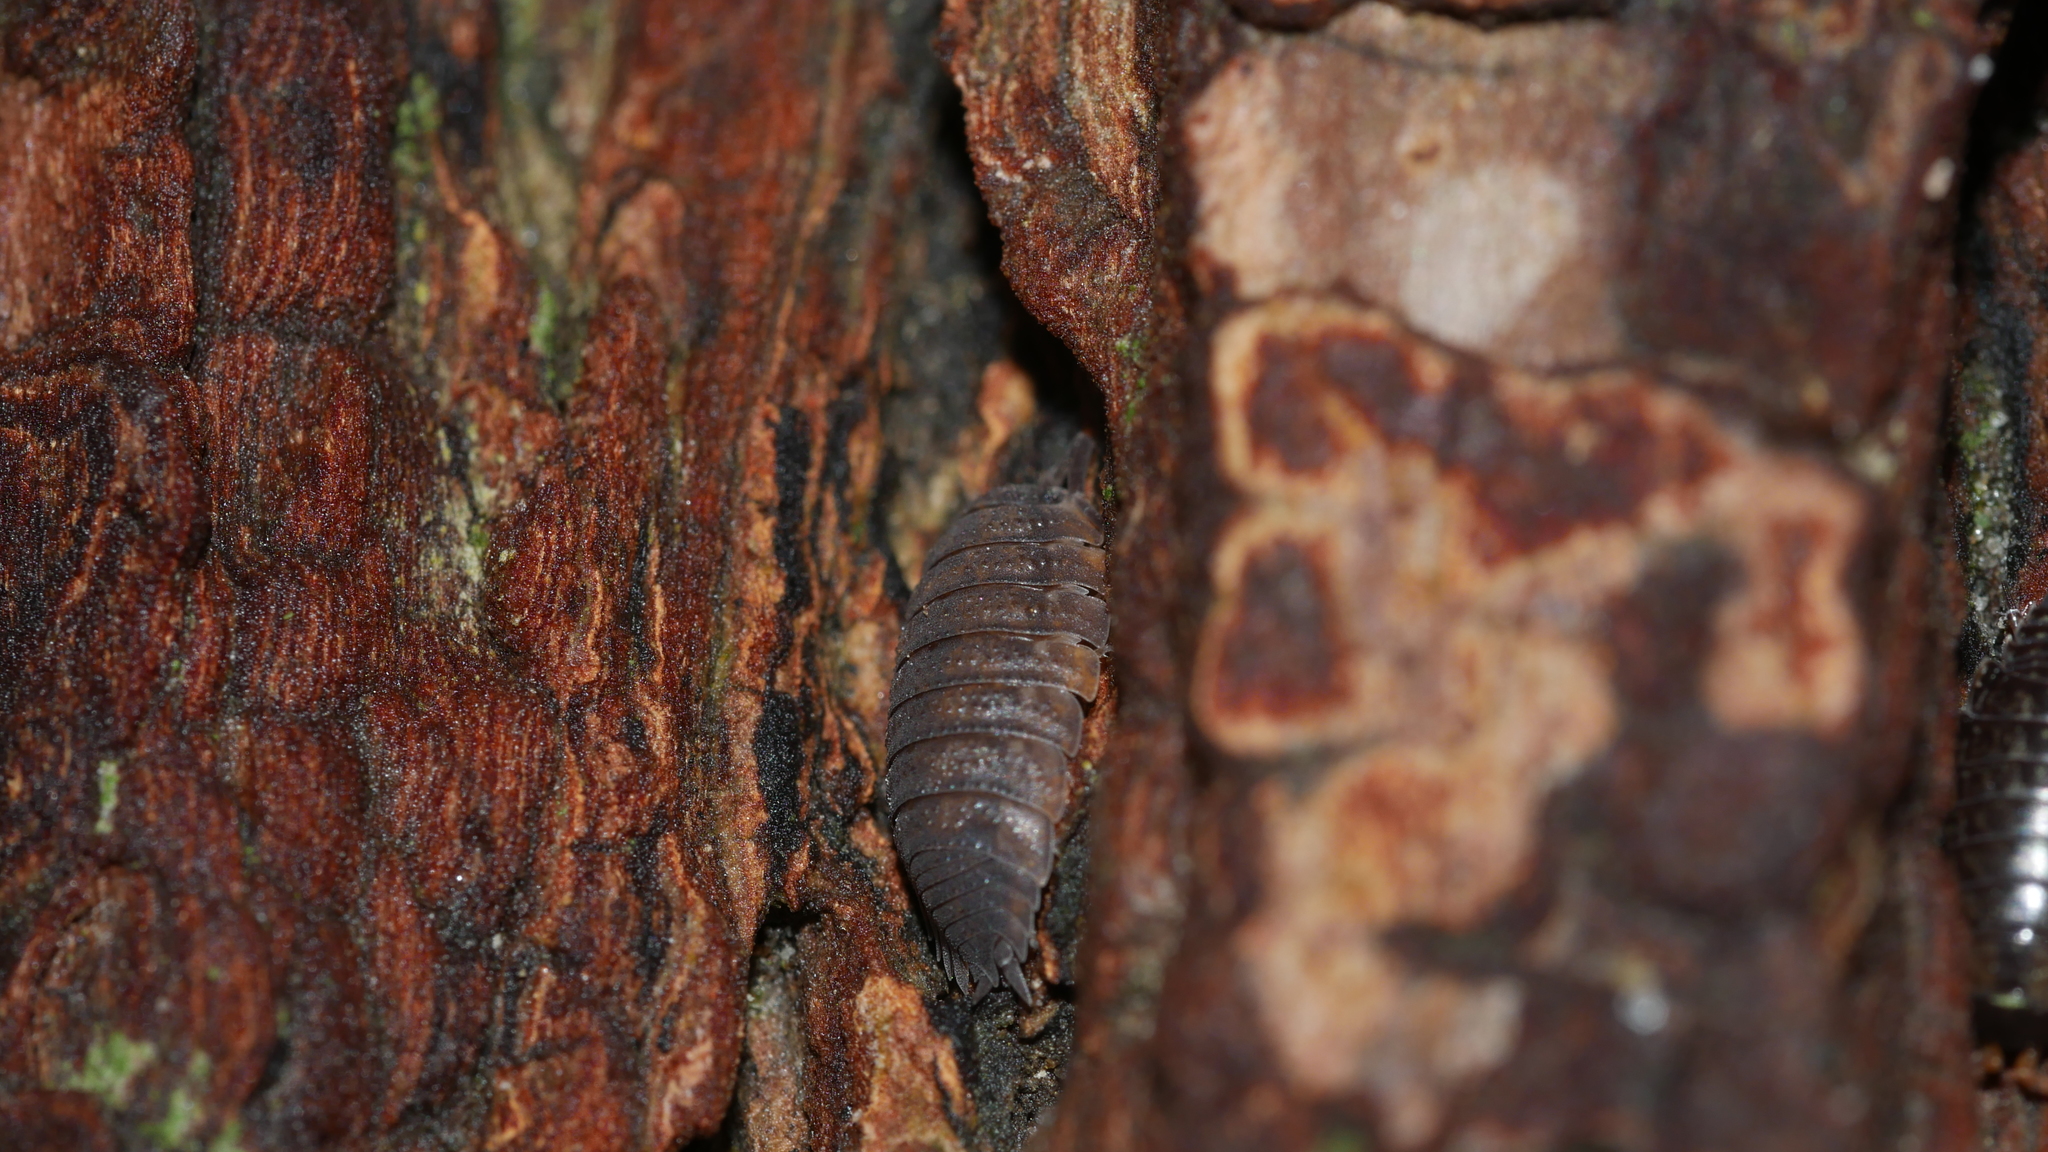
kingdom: Animalia
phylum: Arthropoda
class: Malacostraca
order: Isopoda
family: Porcellionidae
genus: Porcellio
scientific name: Porcellio scaber
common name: Common rough woodlouse
